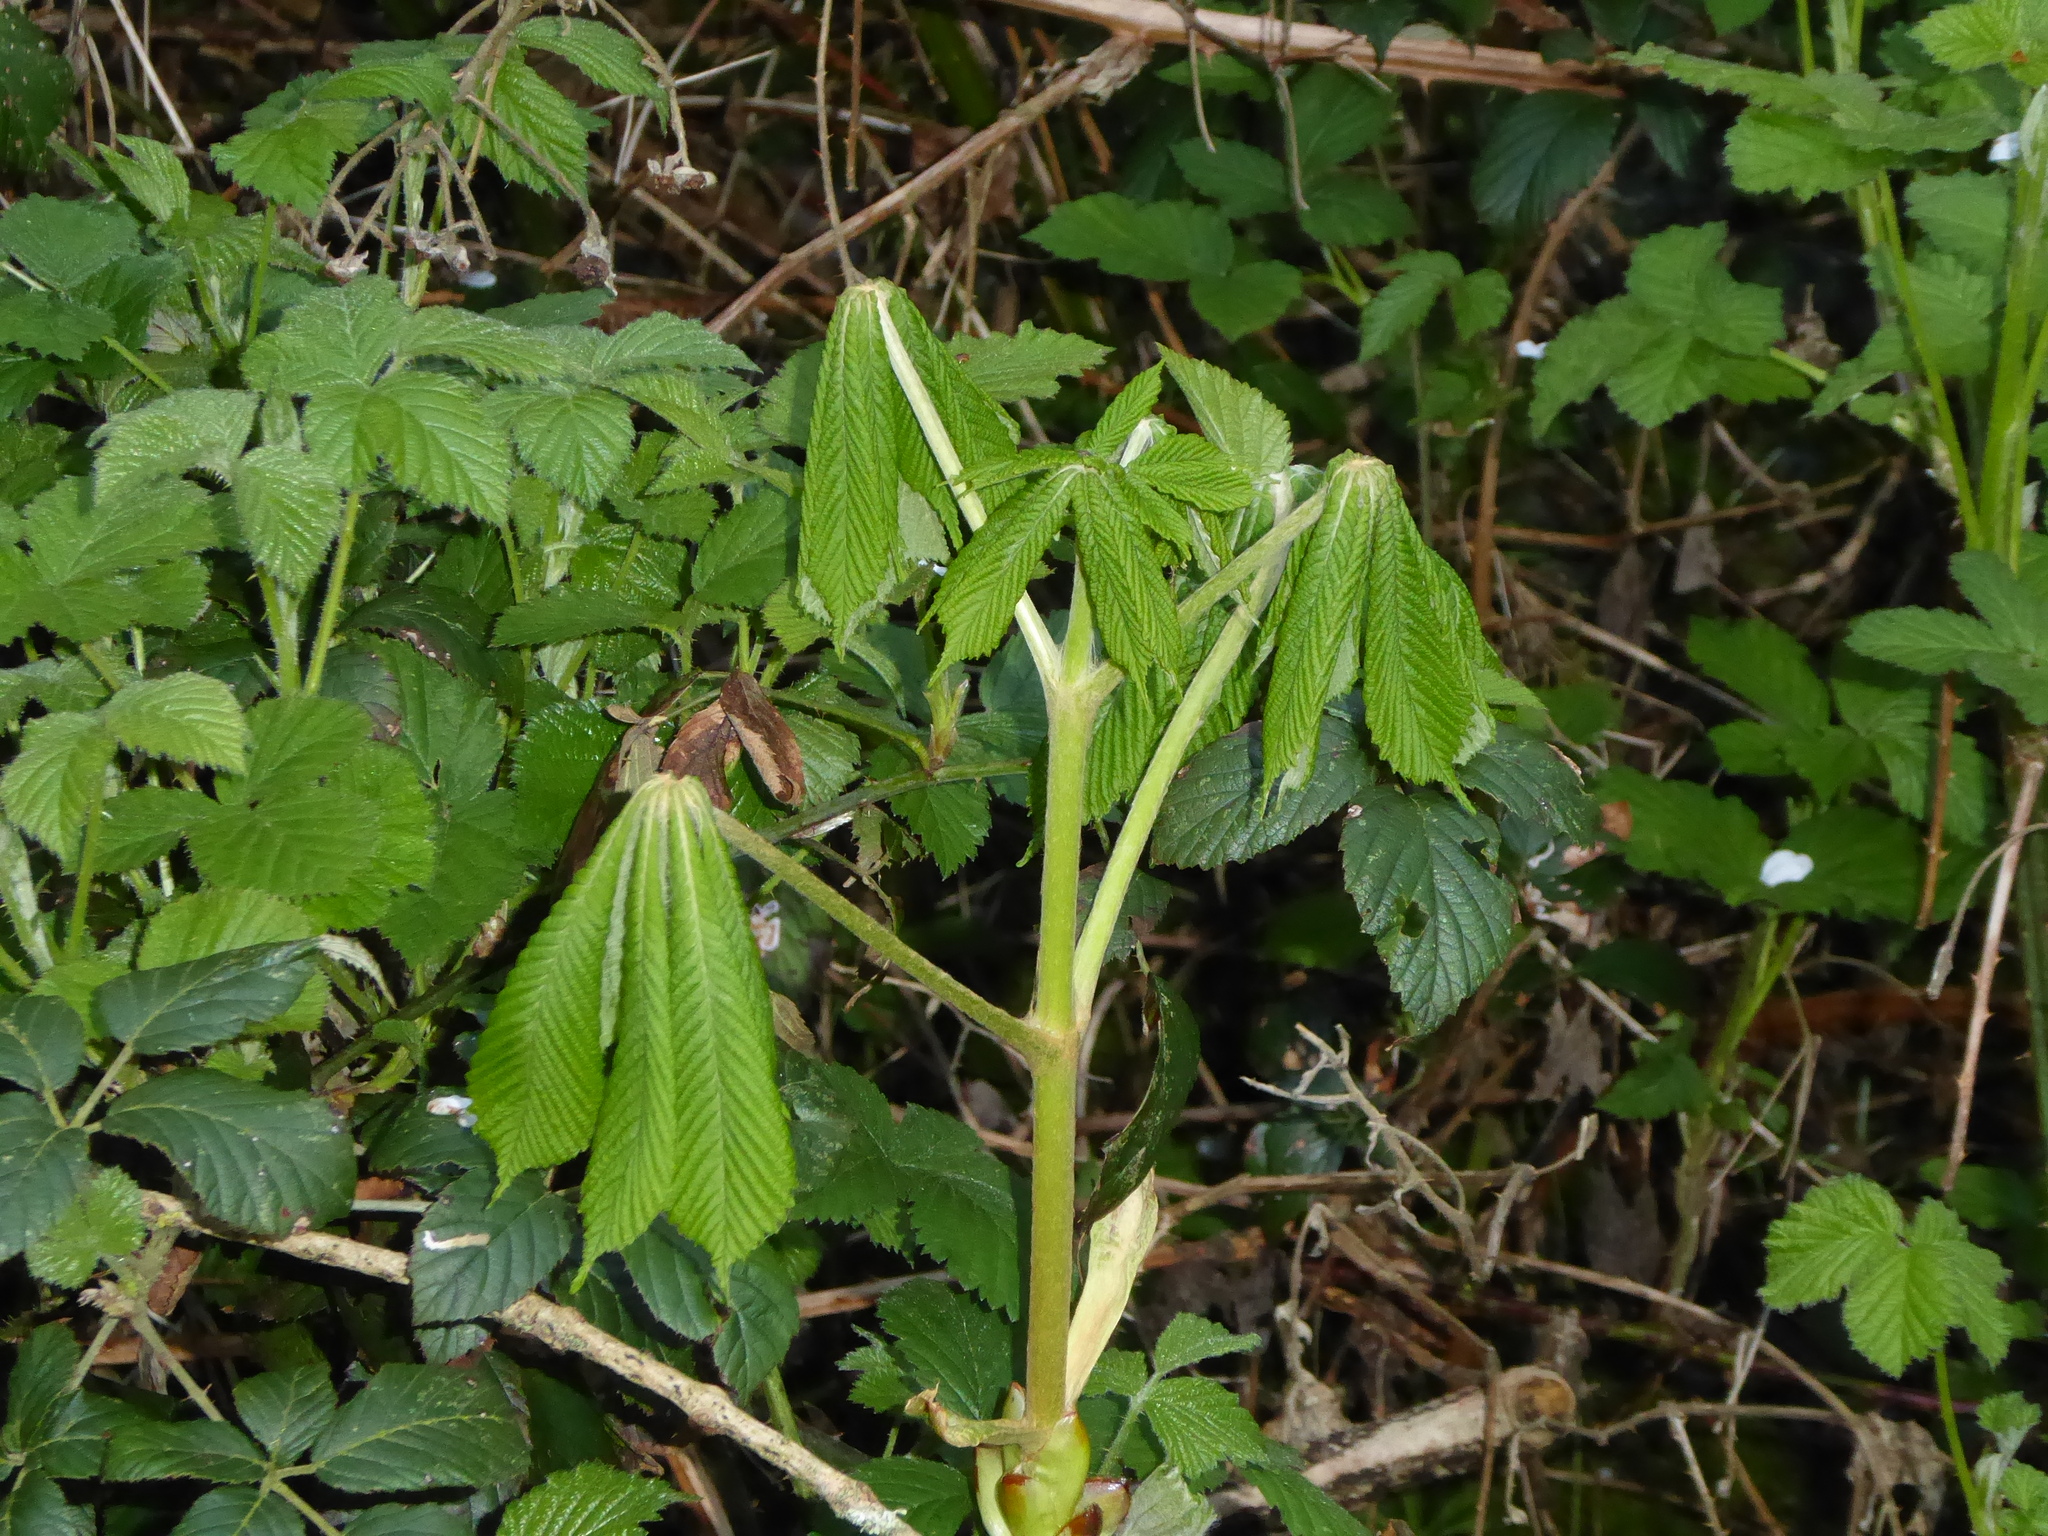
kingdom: Plantae
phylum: Tracheophyta
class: Magnoliopsida
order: Sapindales
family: Sapindaceae
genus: Aesculus
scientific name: Aesculus hippocastanum
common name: Horse-chestnut
